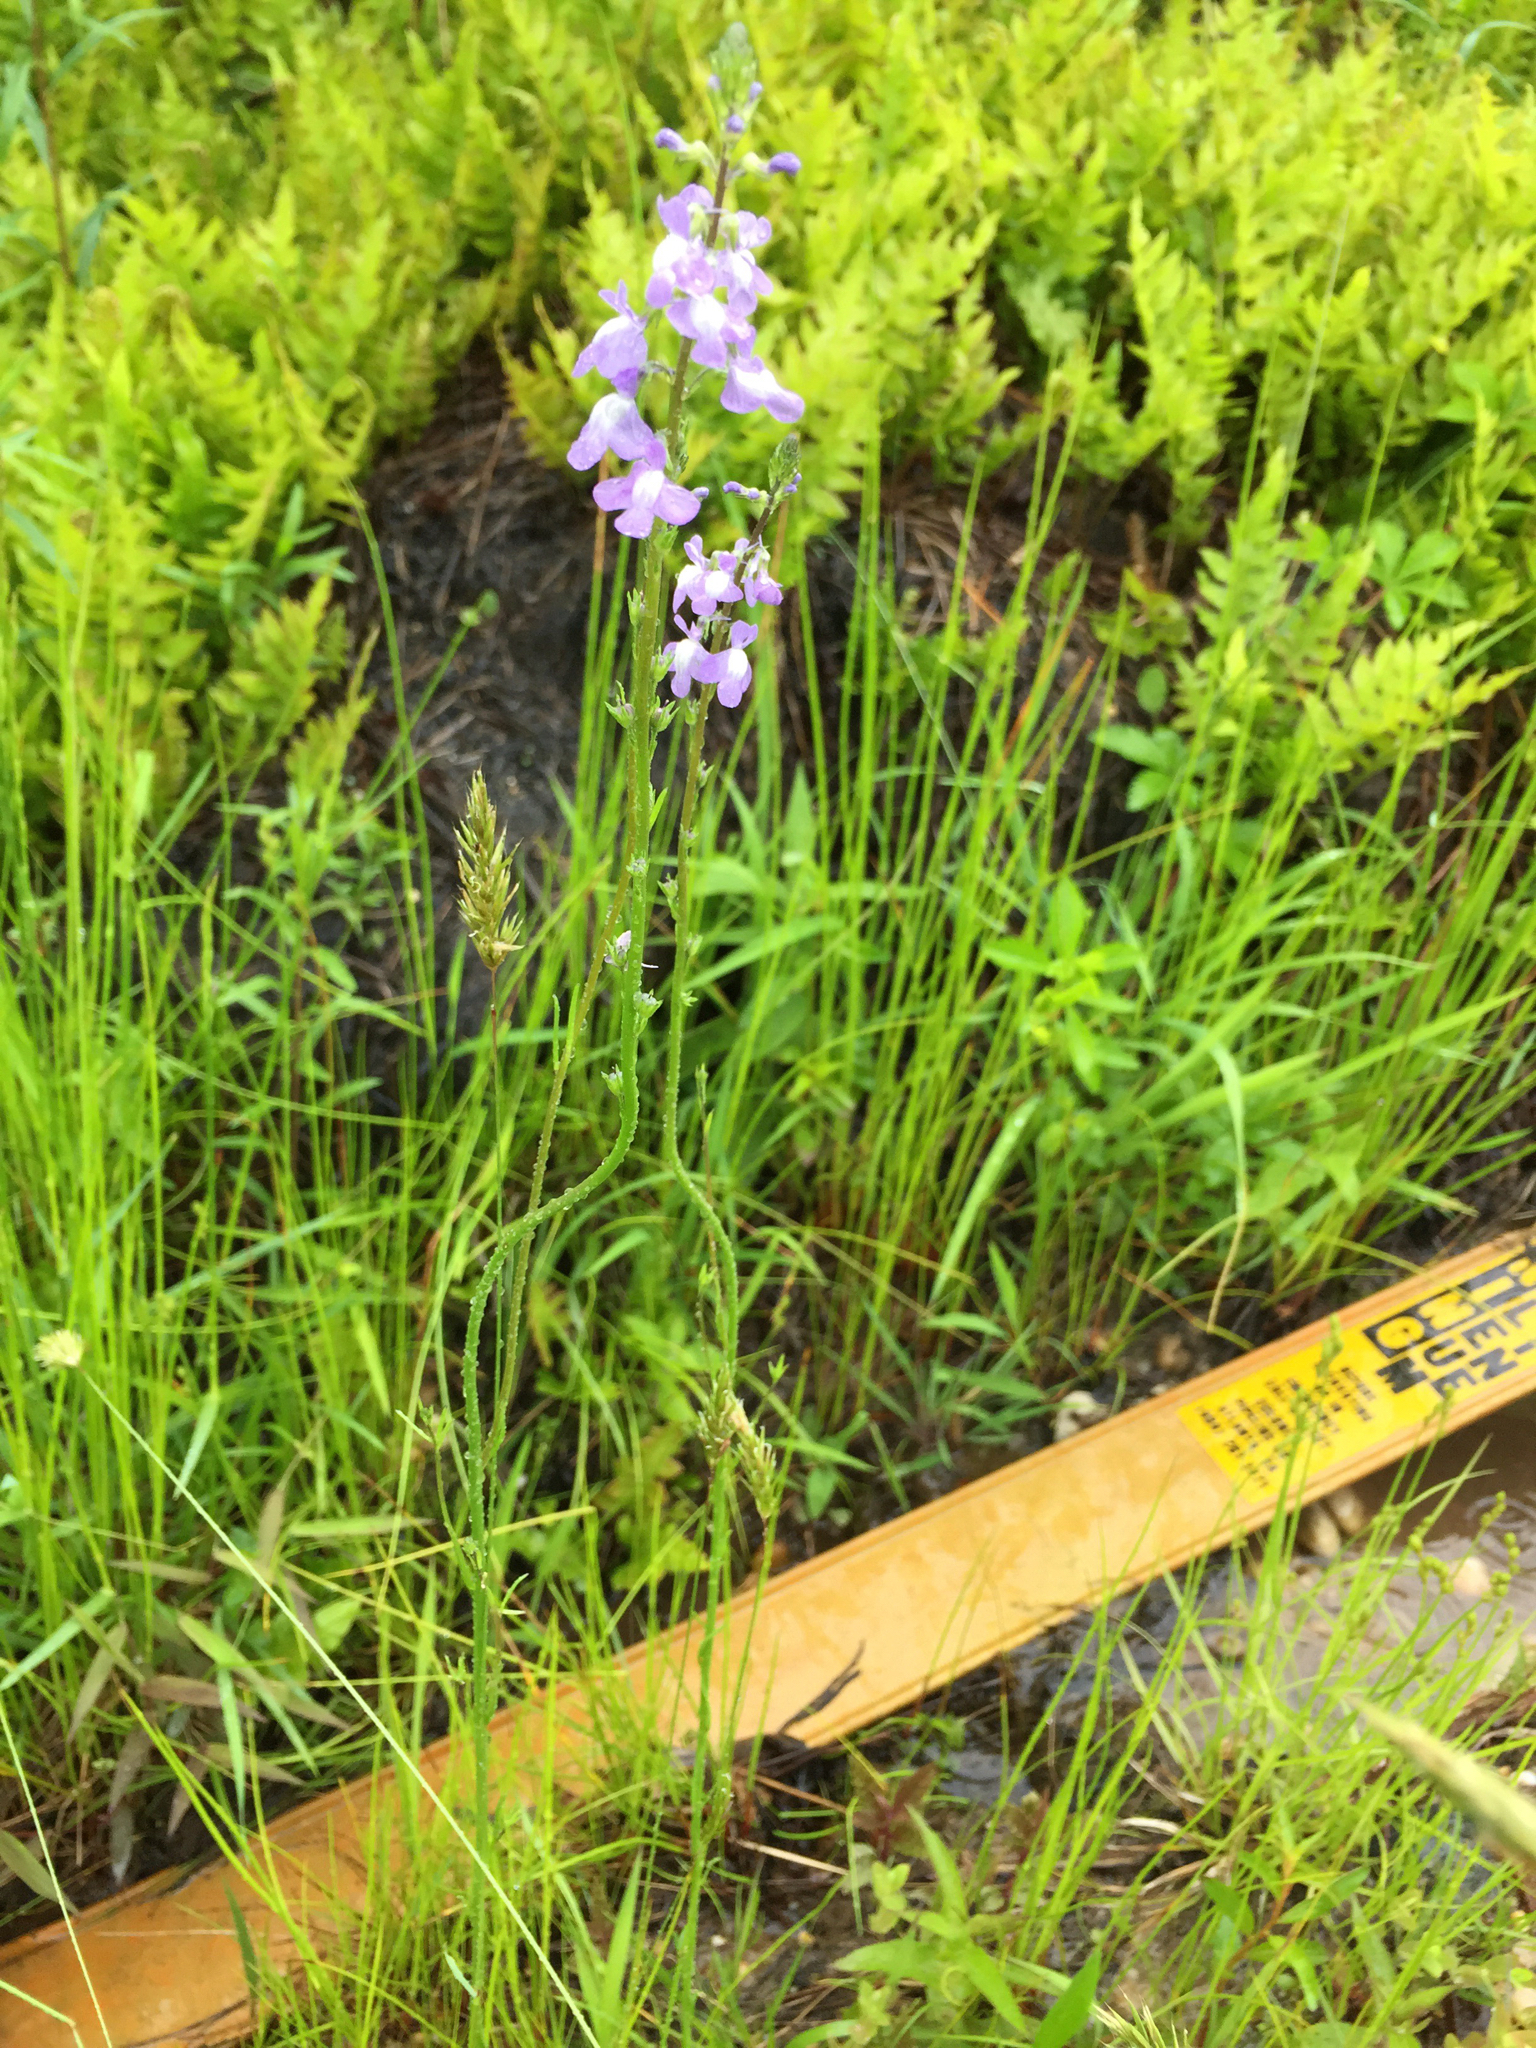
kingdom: Plantae
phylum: Tracheophyta
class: Magnoliopsida
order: Lamiales
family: Plantaginaceae
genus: Nuttallanthus
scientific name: Nuttallanthus canadensis
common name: Blue toadflax
